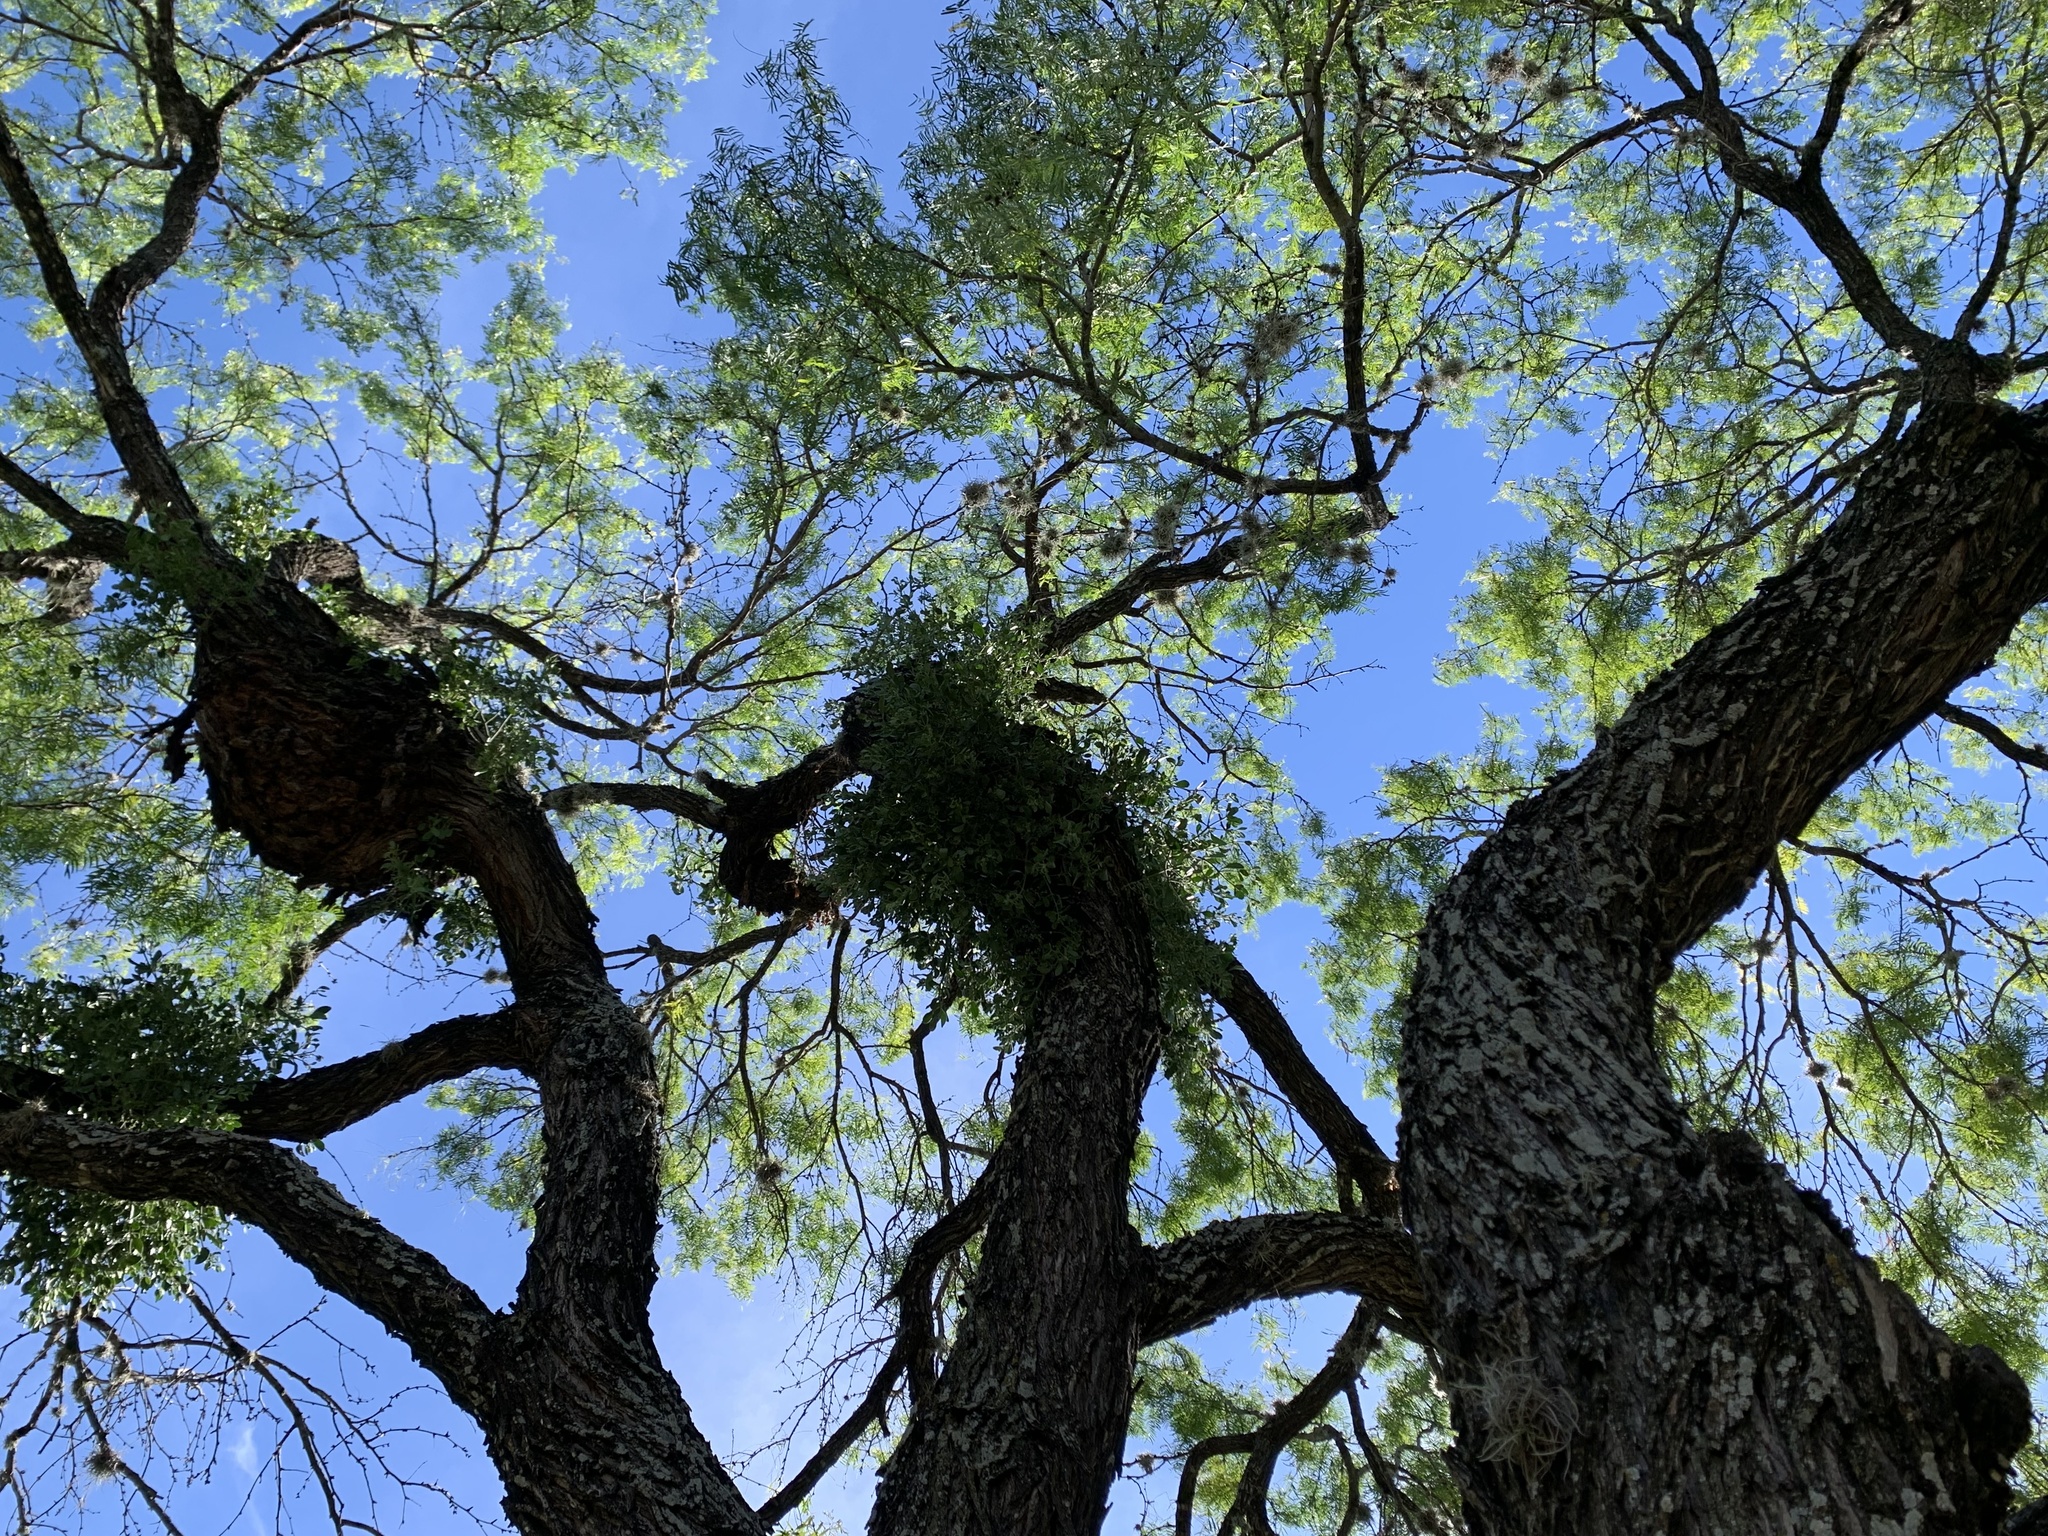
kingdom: Plantae
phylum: Tracheophyta
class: Magnoliopsida
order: Fabales
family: Fabaceae
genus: Prosopis
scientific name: Prosopis glandulosa
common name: Honey mesquite
